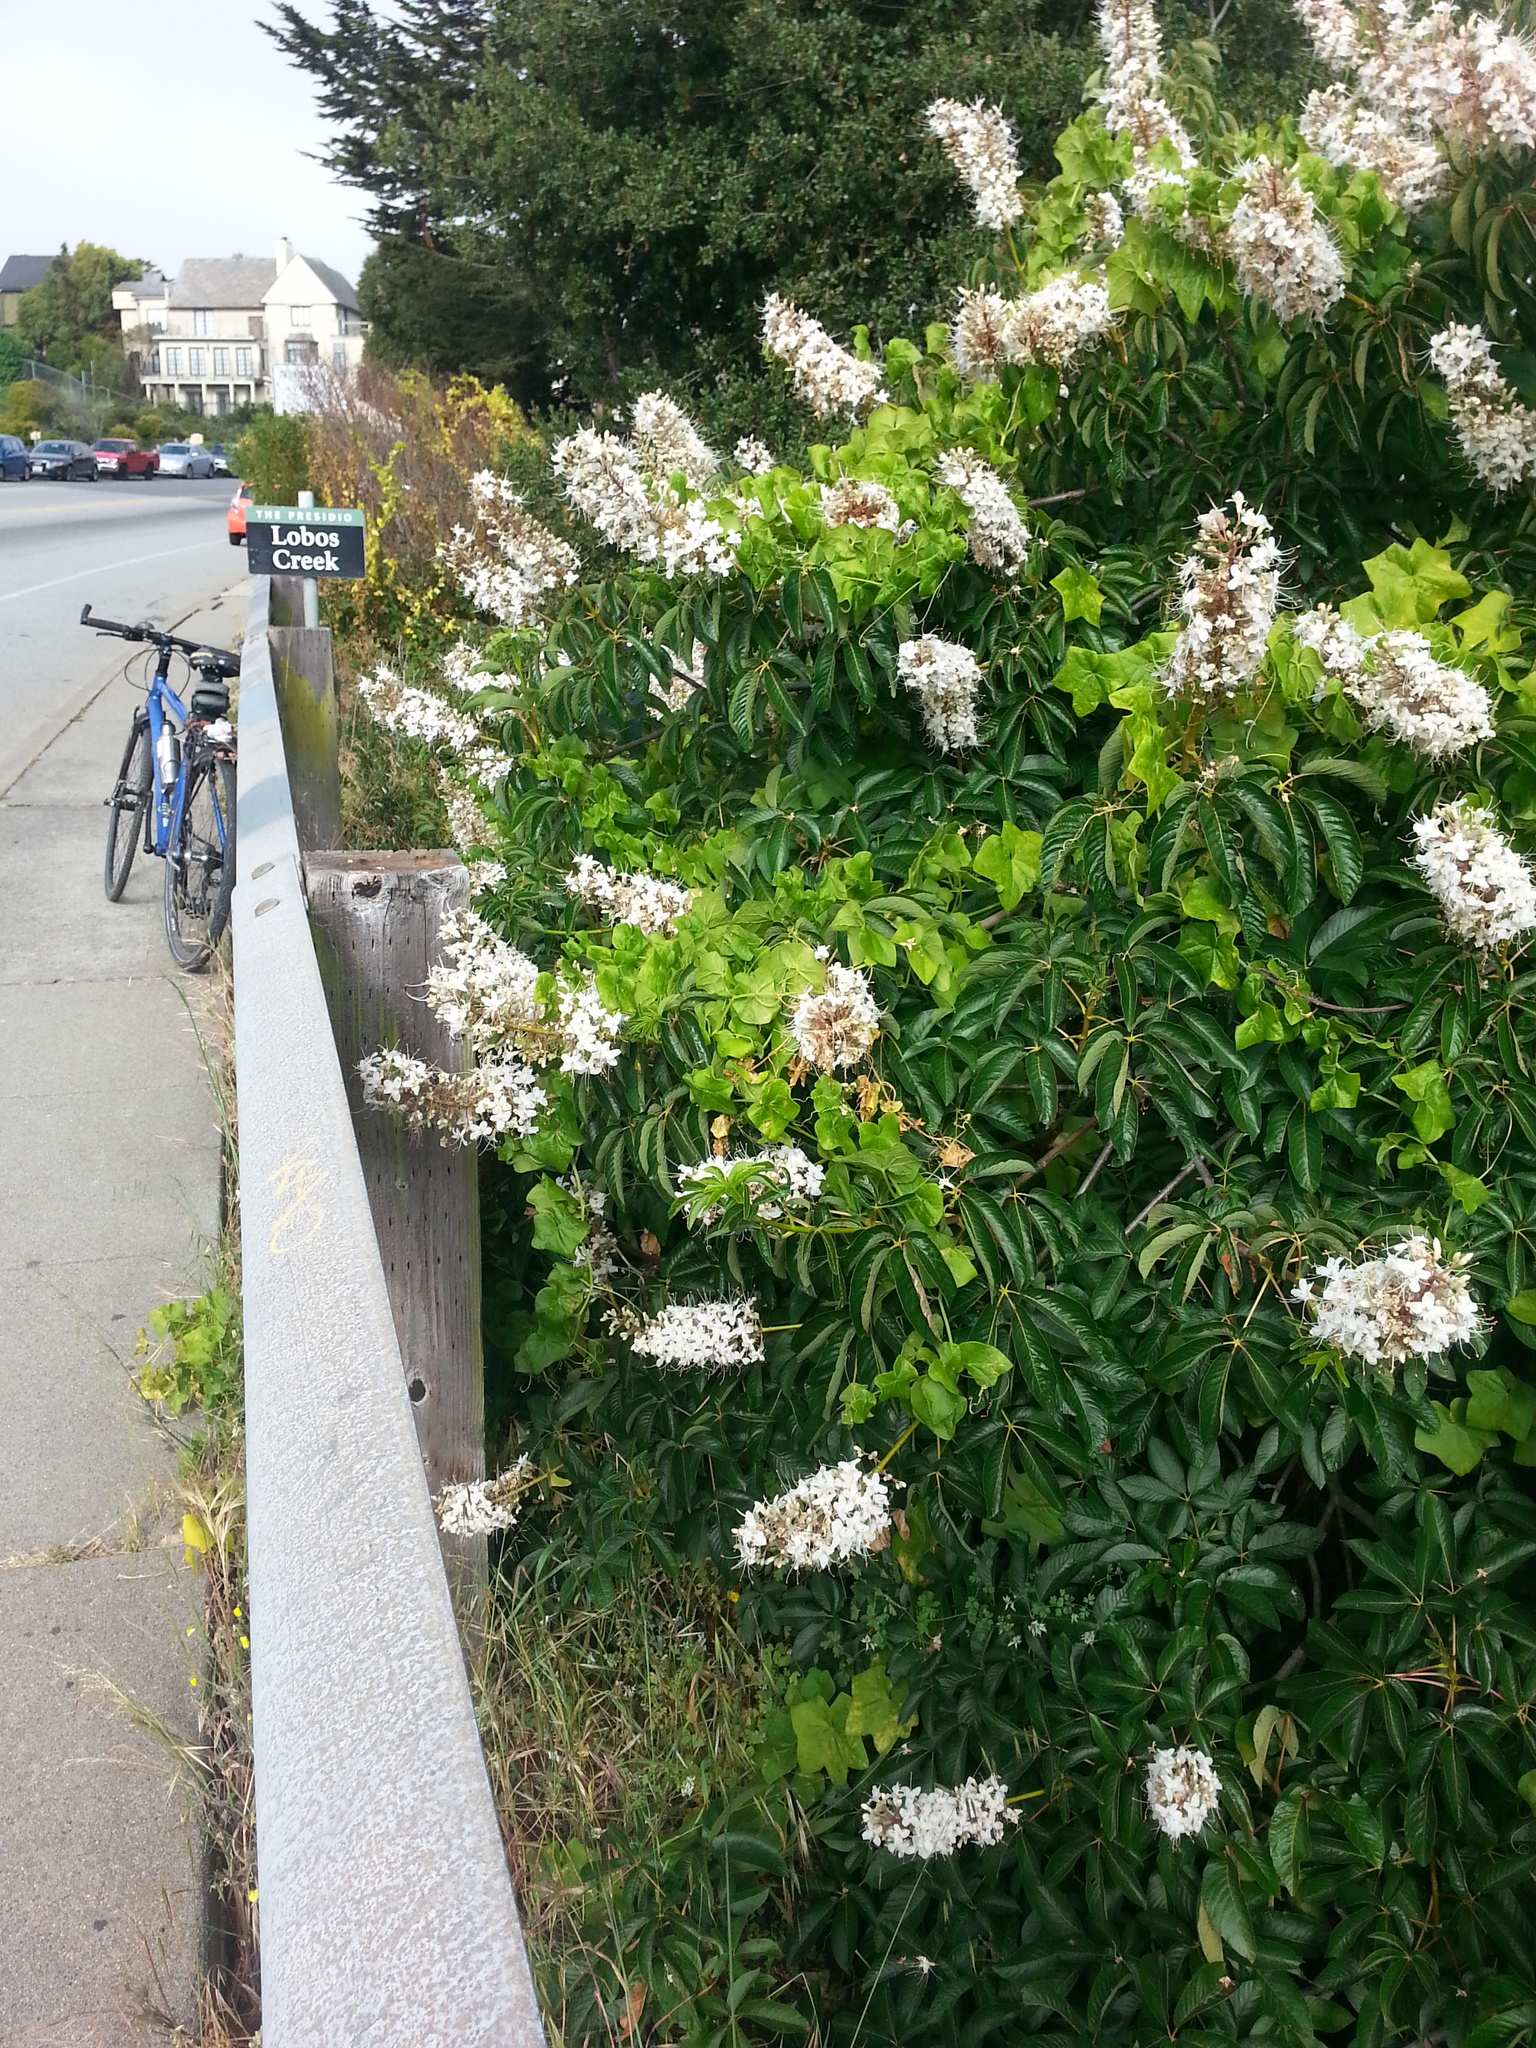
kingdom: Plantae
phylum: Tracheophyta
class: Magnoliopsida
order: Sapindales
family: Sapindaceae
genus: Aesculus
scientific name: Aesculus californica
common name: California buckeye
